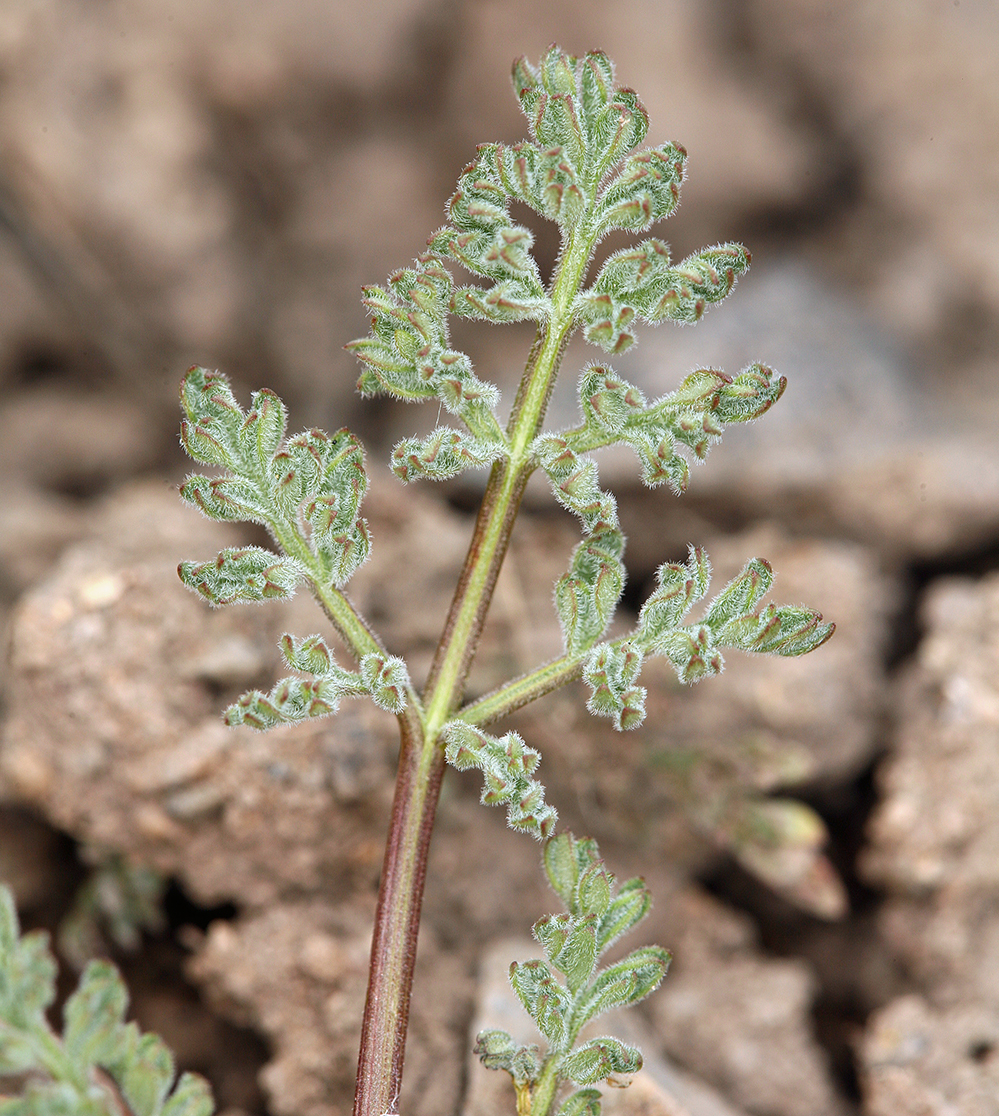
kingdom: Plantae
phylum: Tracheophyta
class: Magnoliopsida
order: Apiales
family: Apiaceae
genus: Lomatium
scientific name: Lomatium austiniae
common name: Plumas lomatium
